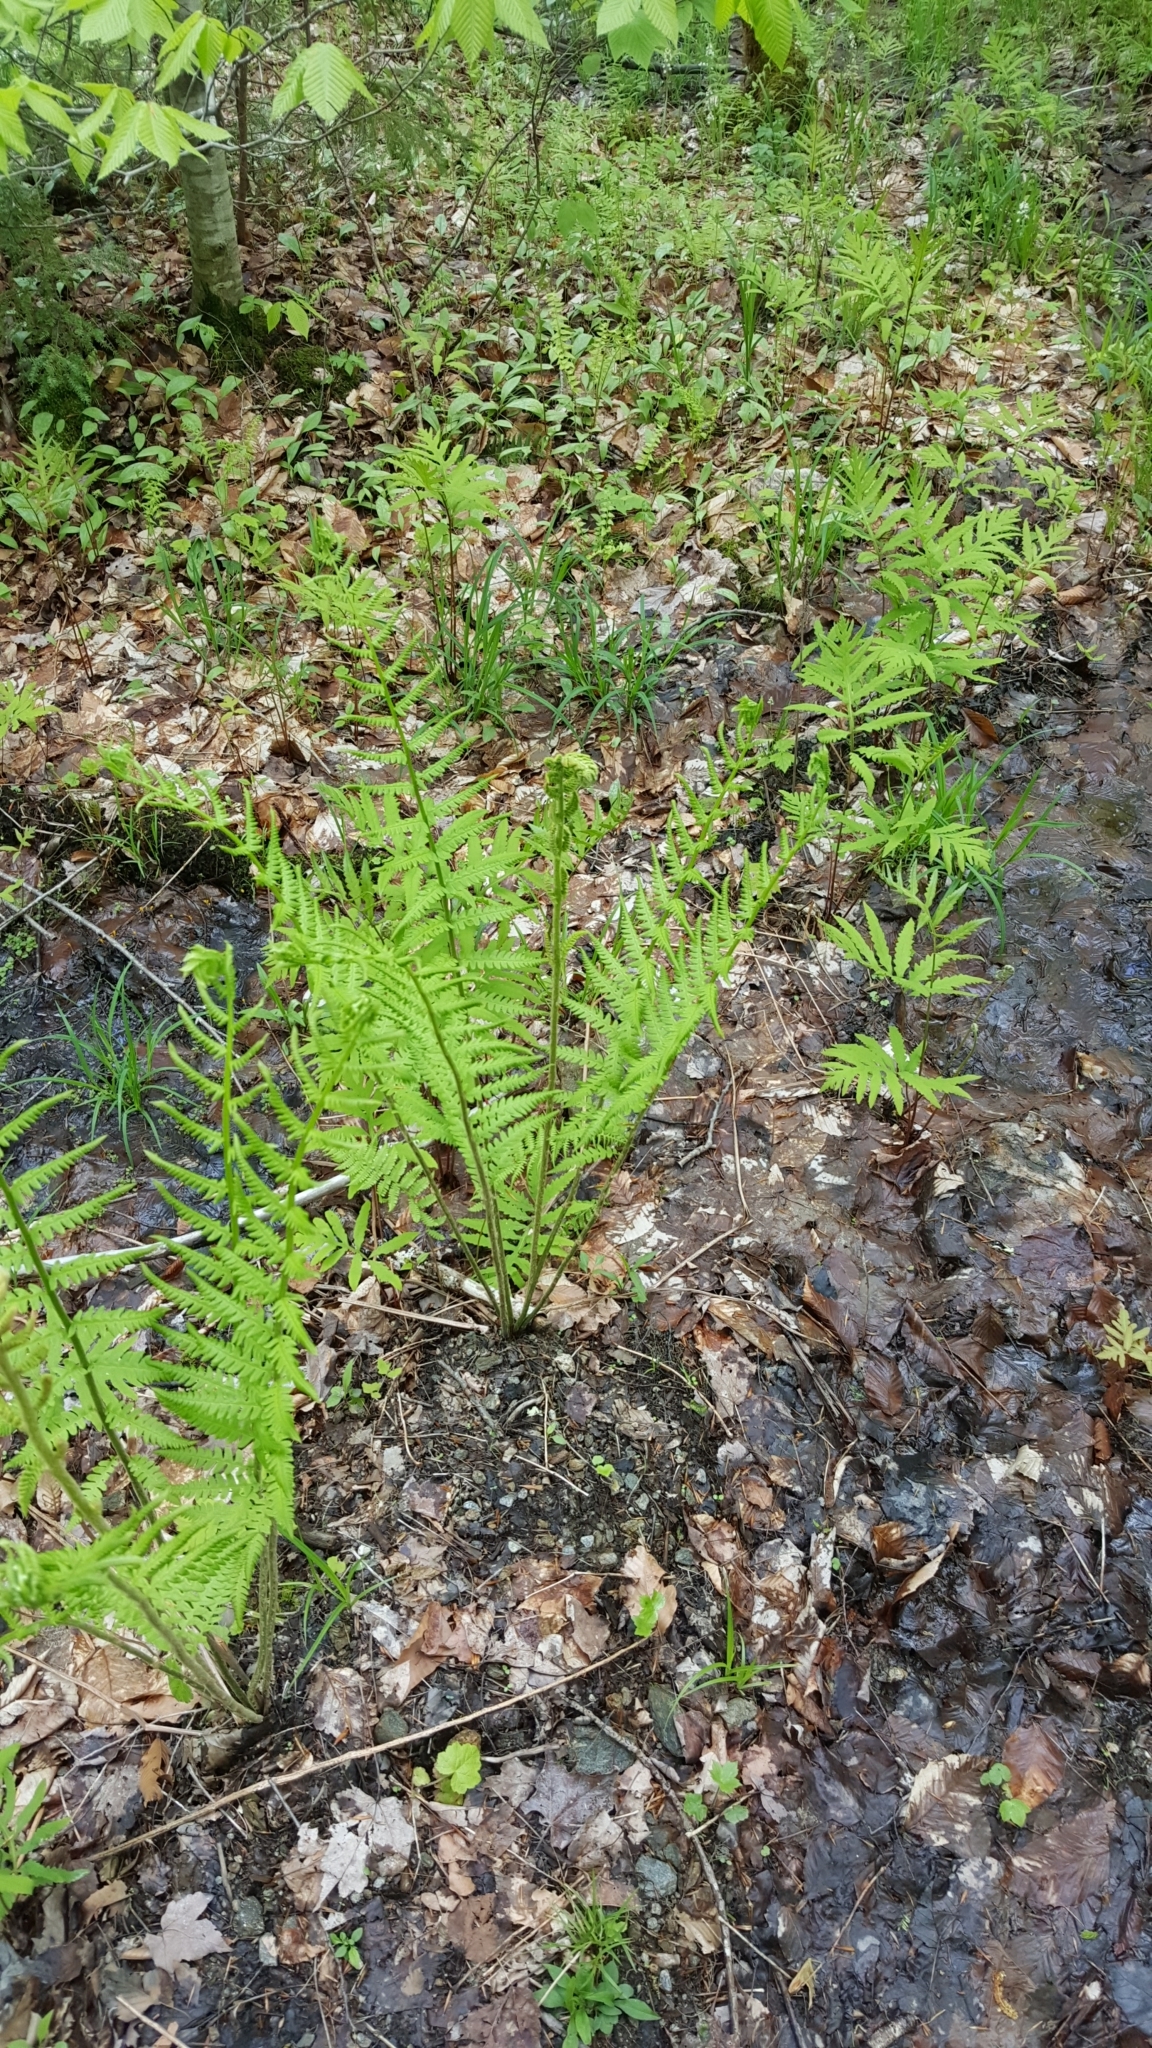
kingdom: Plantae
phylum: Tracheophyta
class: Polypodiopsida
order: Osmundales
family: Osmundaceae
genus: Claytosmunda
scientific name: Claytosmunda claytoniana
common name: Clayton's fern
